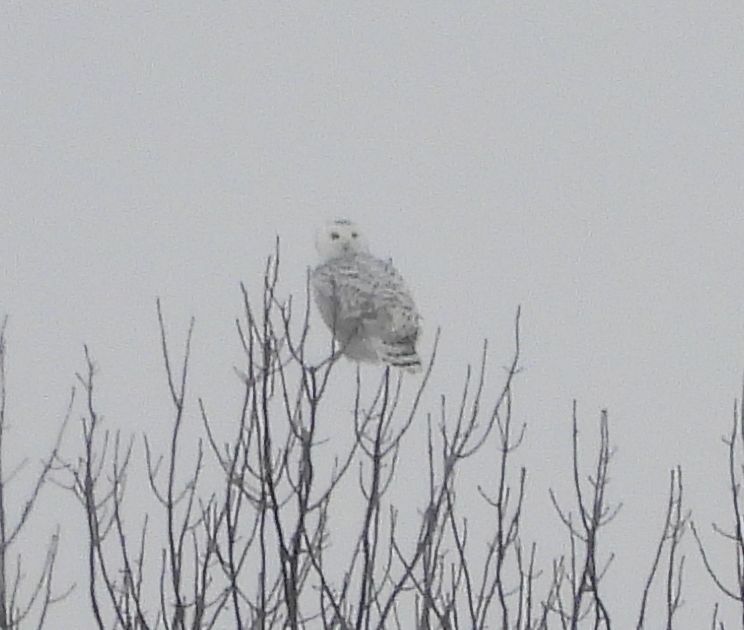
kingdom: Animalia
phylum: Chordata
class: Aves
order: Strigiformes
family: Strigidae
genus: Bubo
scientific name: Bubo scandiacus
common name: Snowy owl
